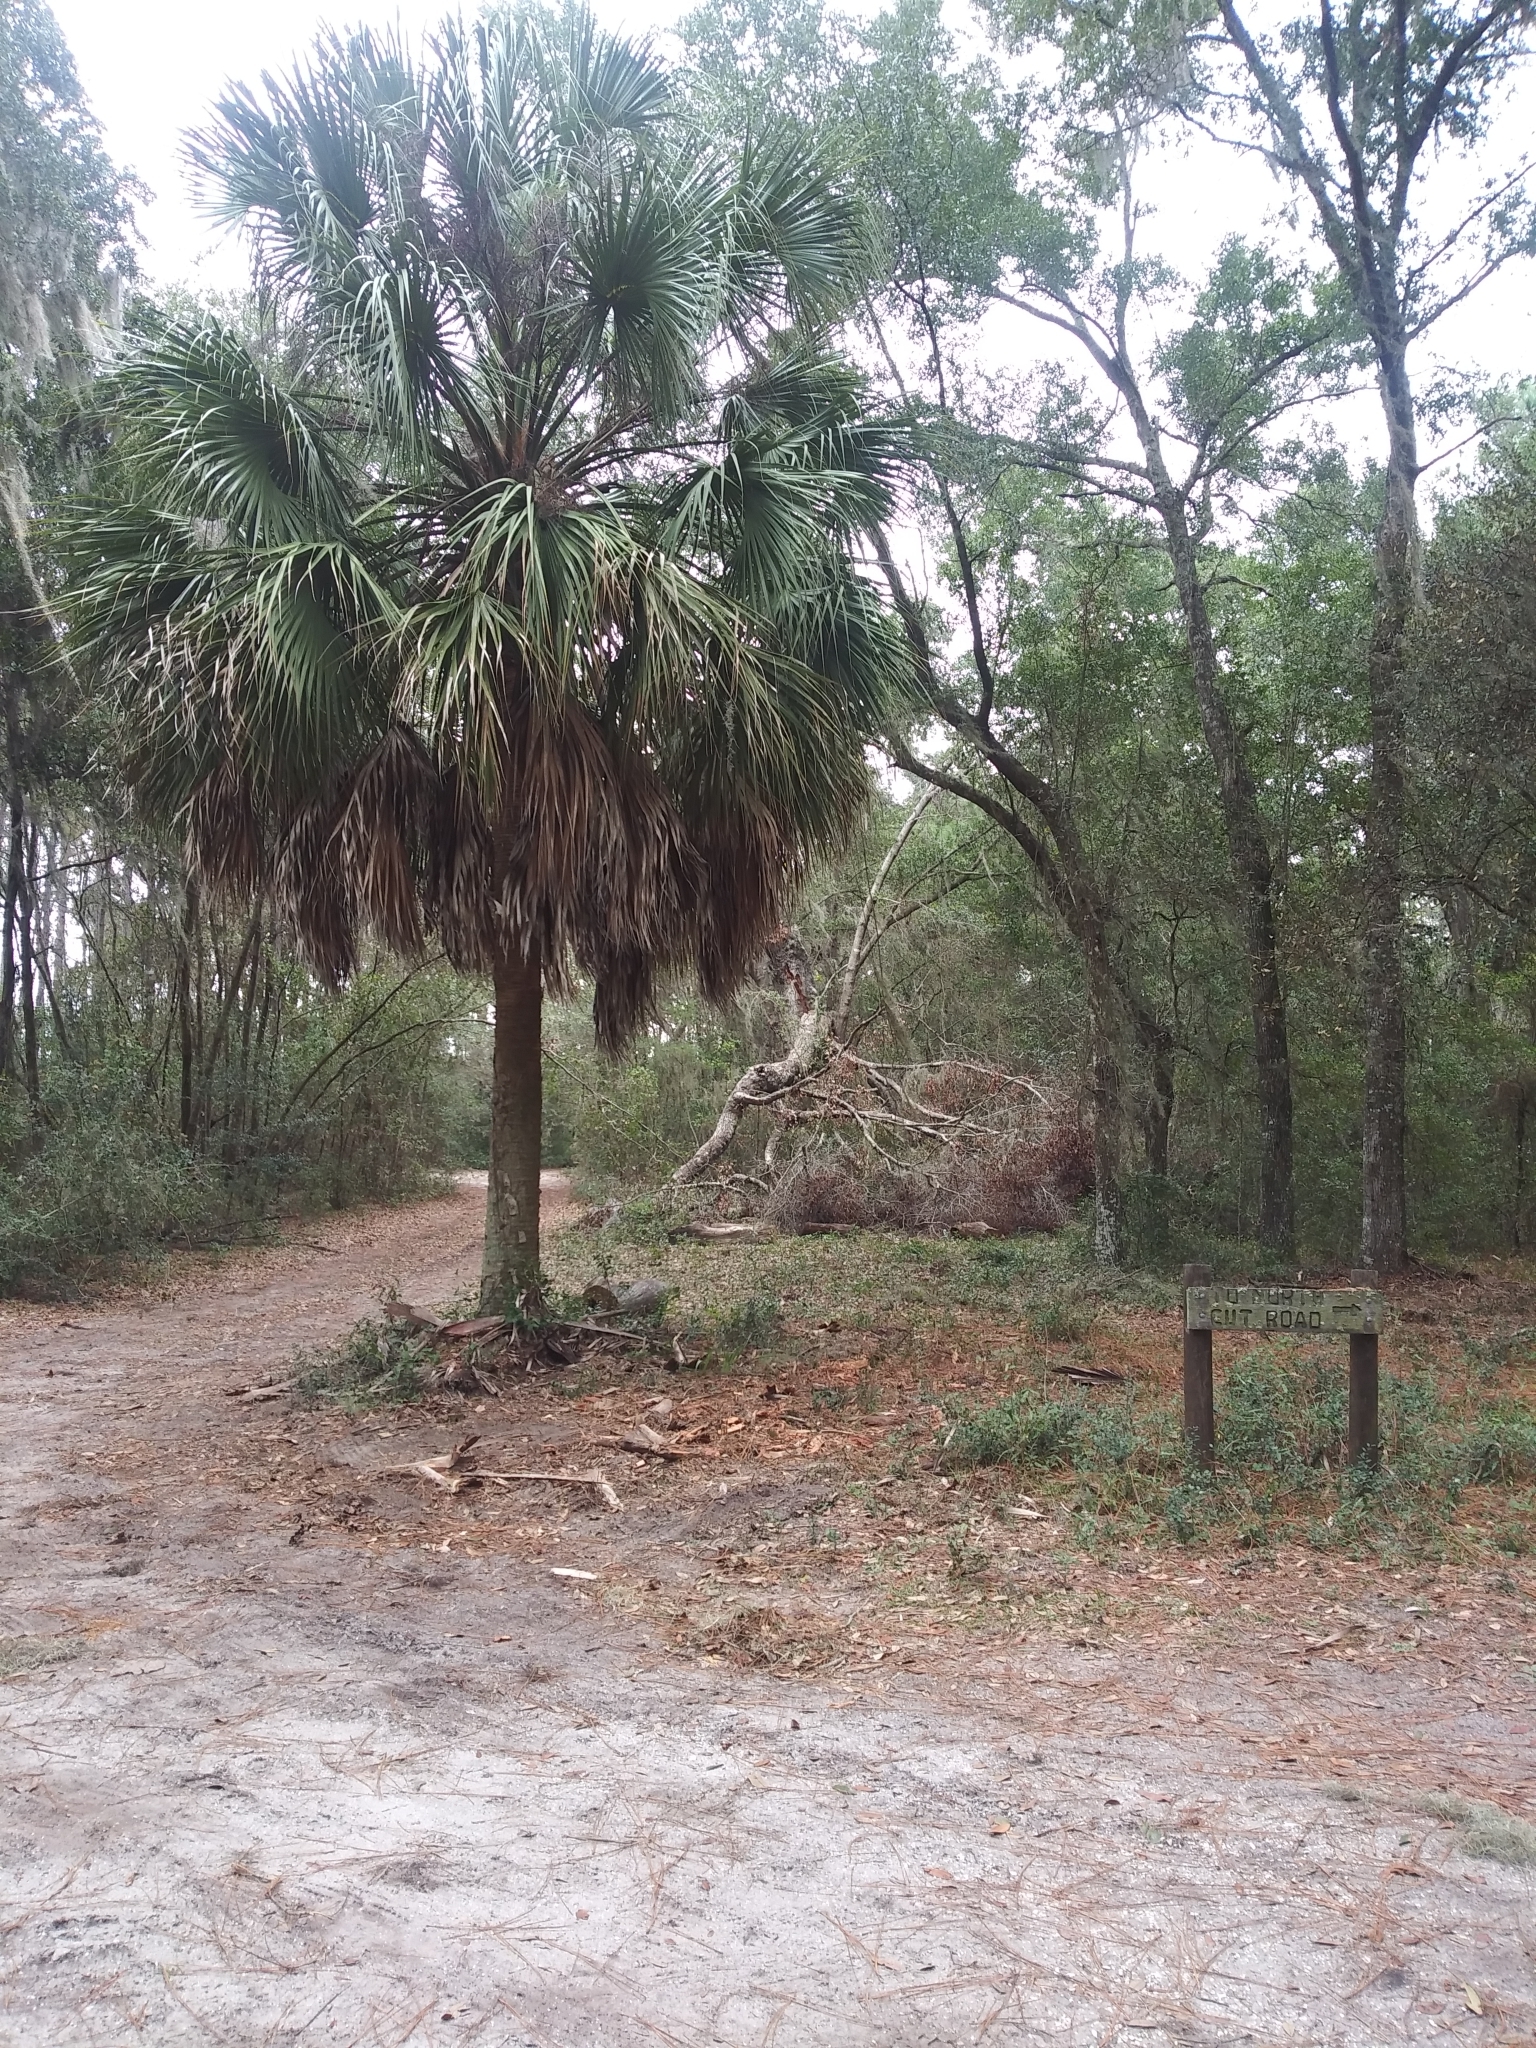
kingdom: Plantae
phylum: Tracheophyta
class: Liliopsida
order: Arecales
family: Arecaceae
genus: Sabal
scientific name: Sabal palmetto
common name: Blue palmetto
